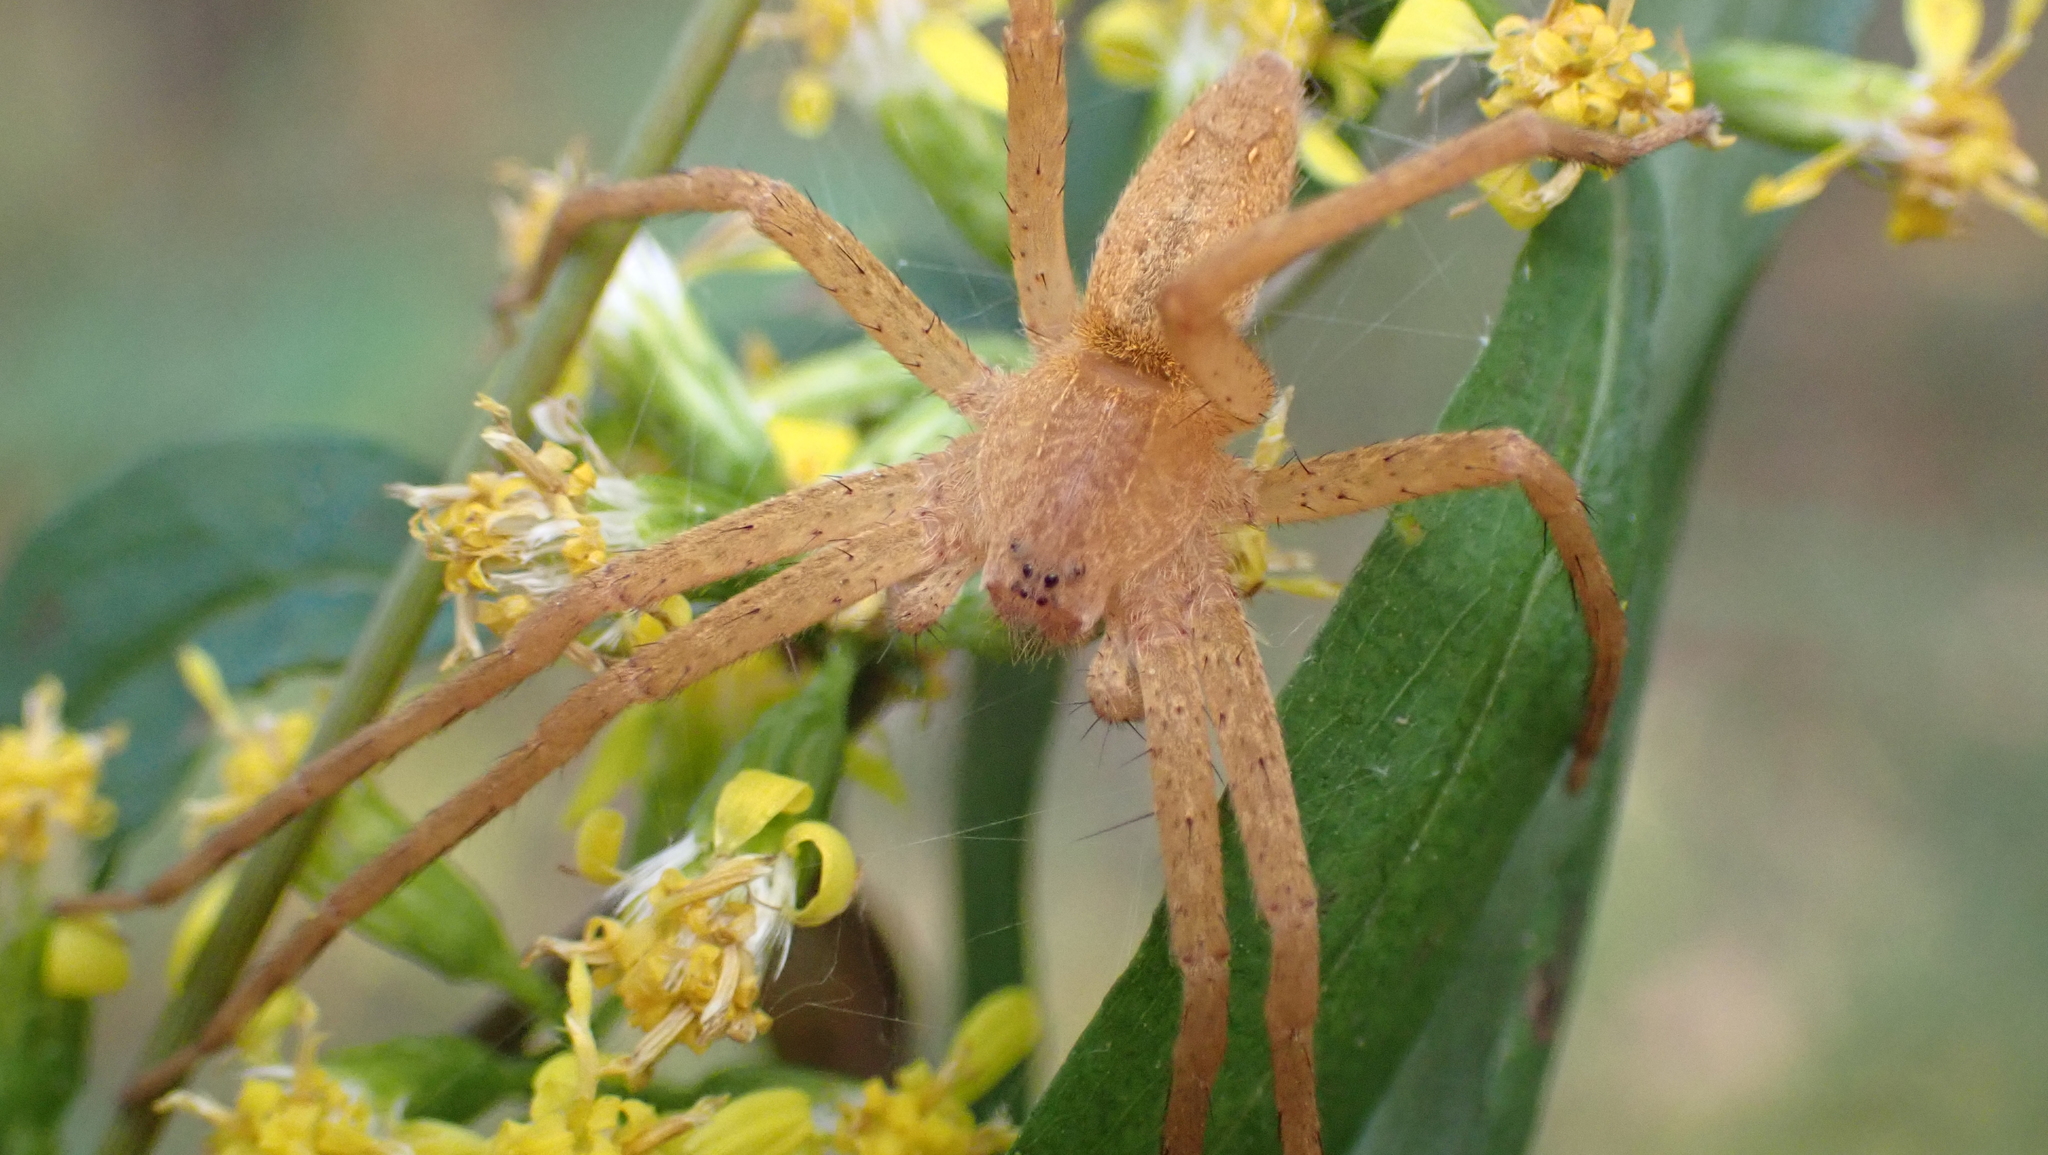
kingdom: Animalia
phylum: Arthropoda
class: Arachnida
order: Araneae
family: Pisauridae
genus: Pisaurina
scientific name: Pisaurina mira
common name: American nursery web spider
